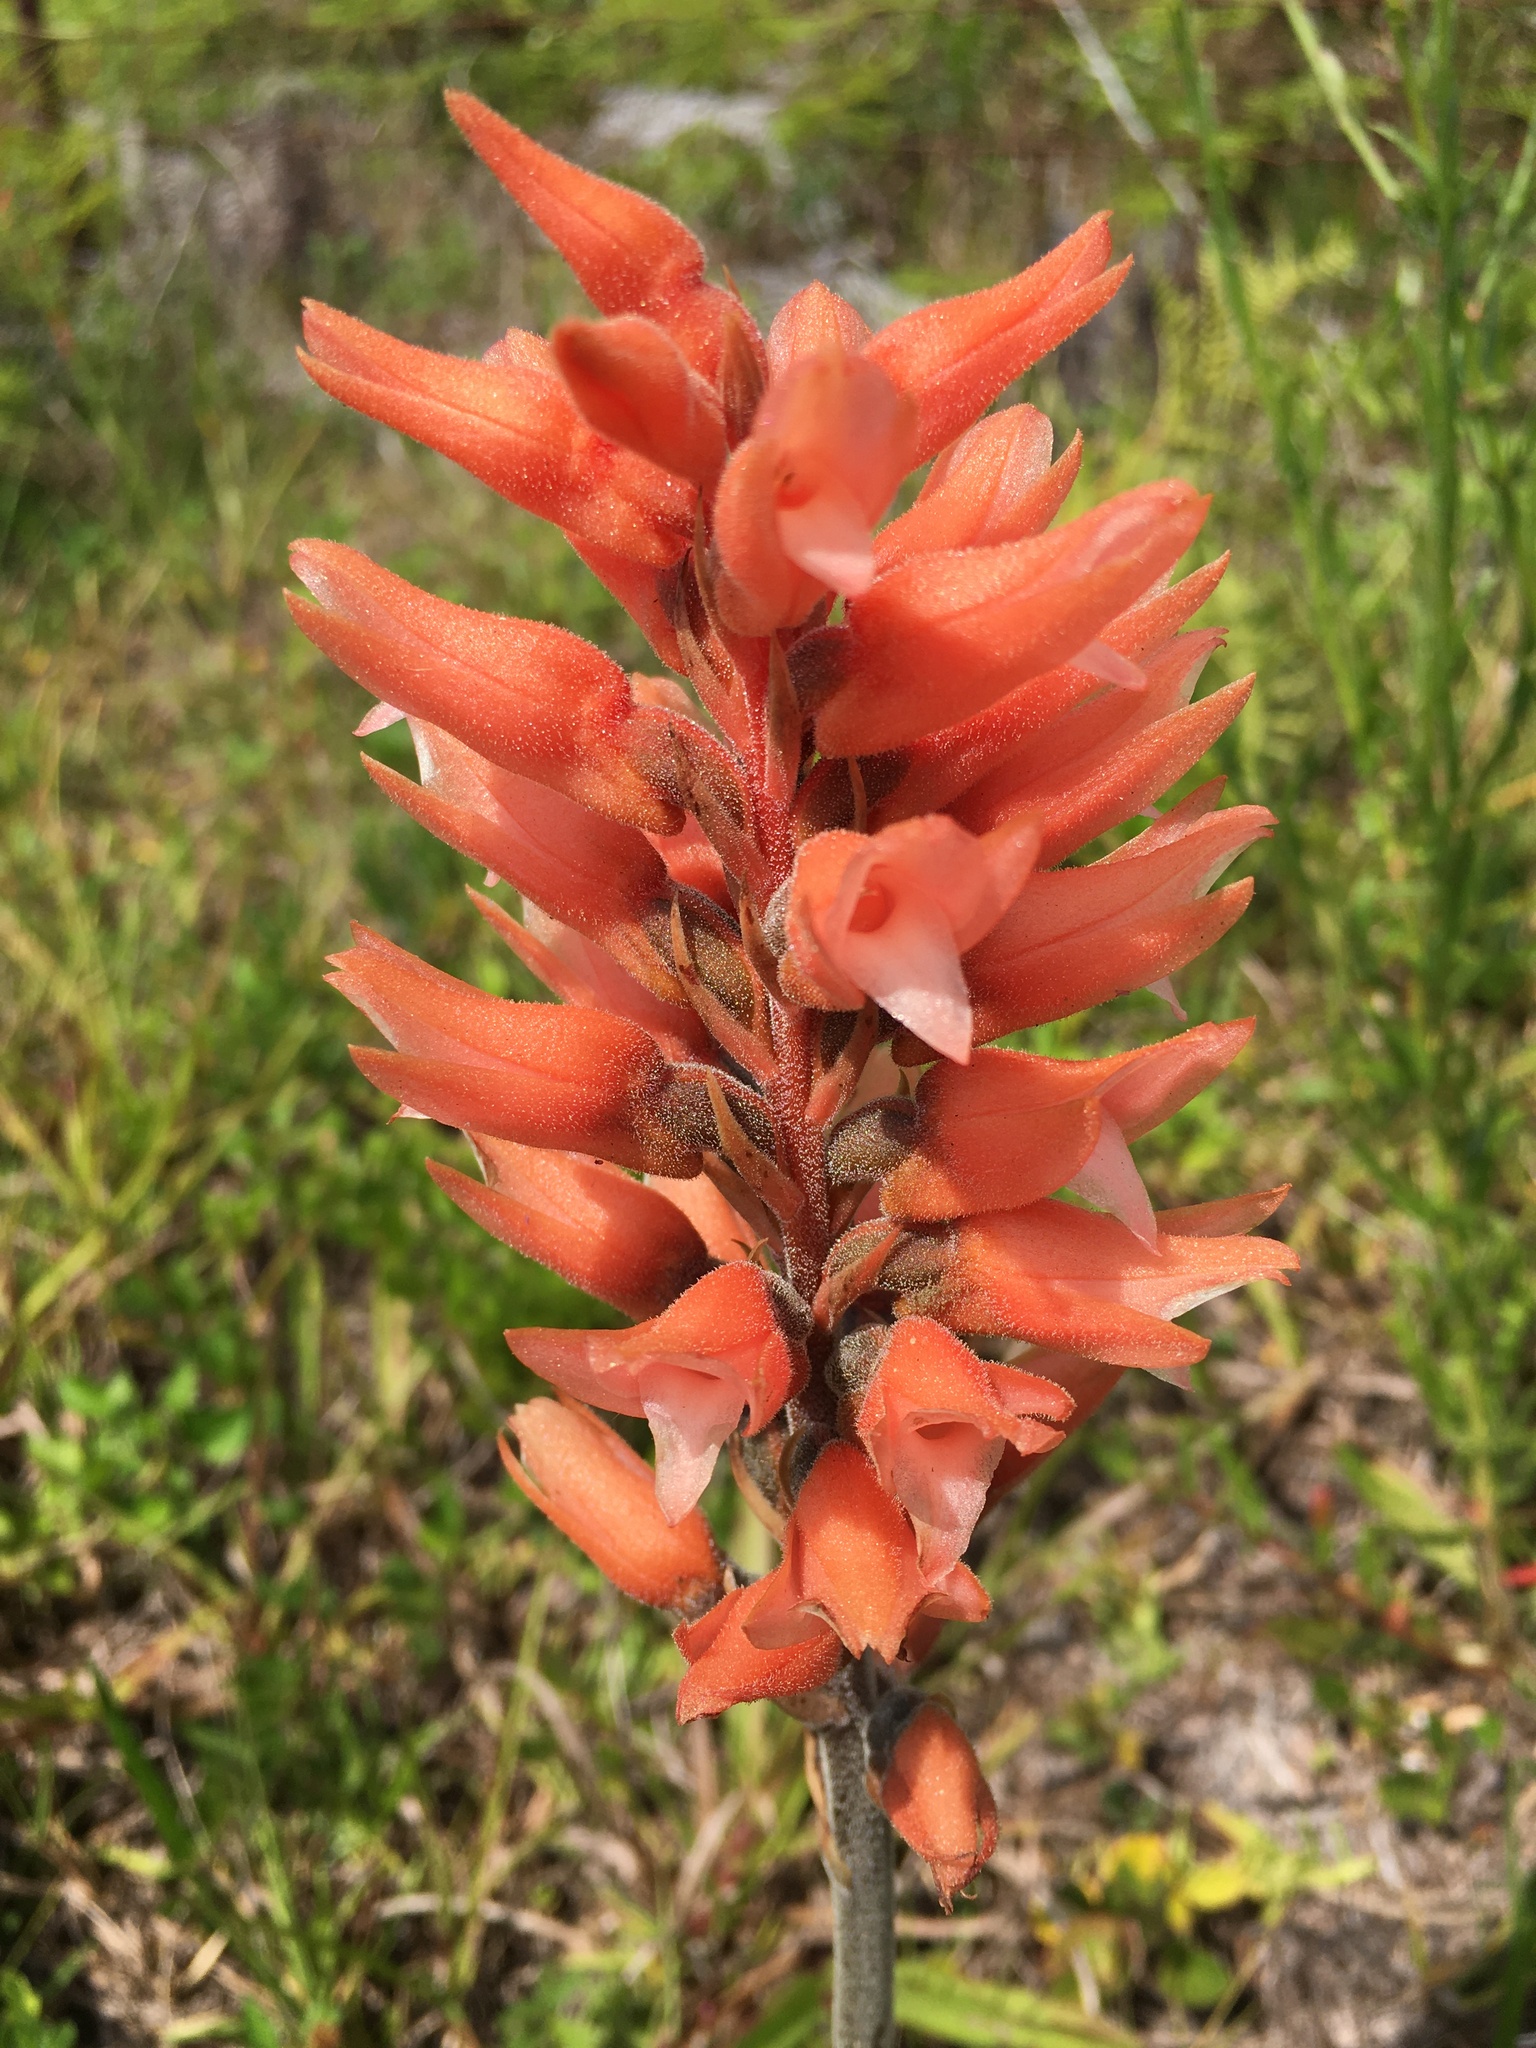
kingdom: Plantae
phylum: Tracheophyta
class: Liliopsida
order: Asparagales
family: Orchidaceae
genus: Sacoila
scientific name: Sacoila lanceolata
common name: Leafless beaked ladiestresses
